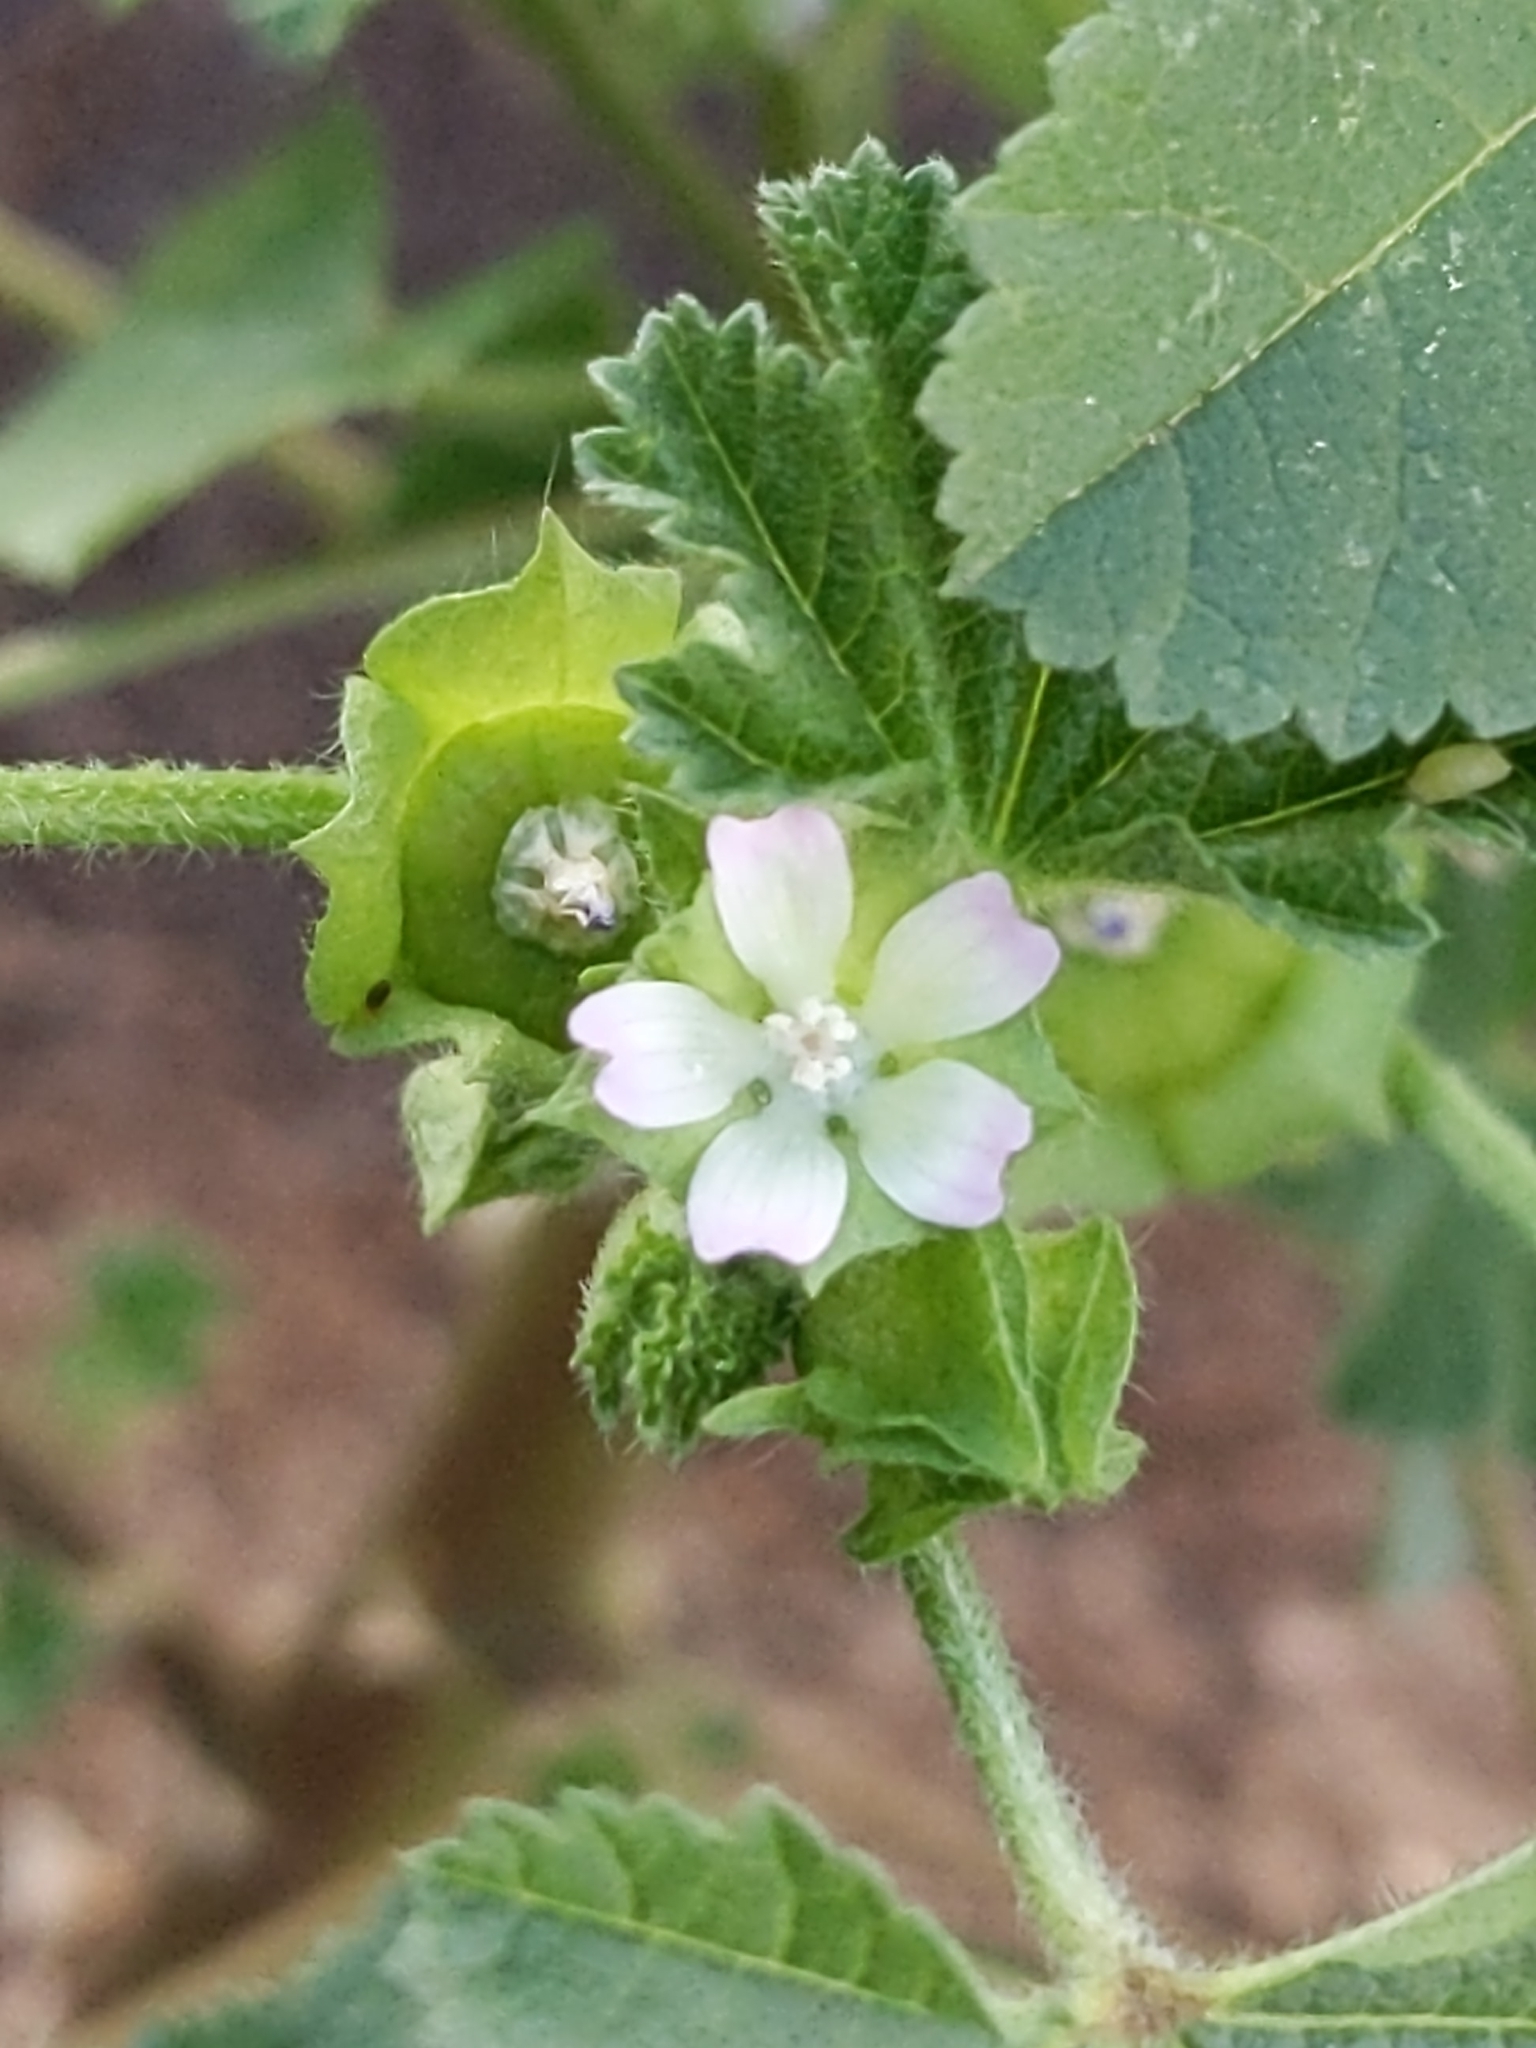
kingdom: Plantae
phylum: Tracheophyta
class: Magnoliopsida
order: Malvales
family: Malvaceae
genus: Malva
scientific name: Malva parviflora
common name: Least mallow
